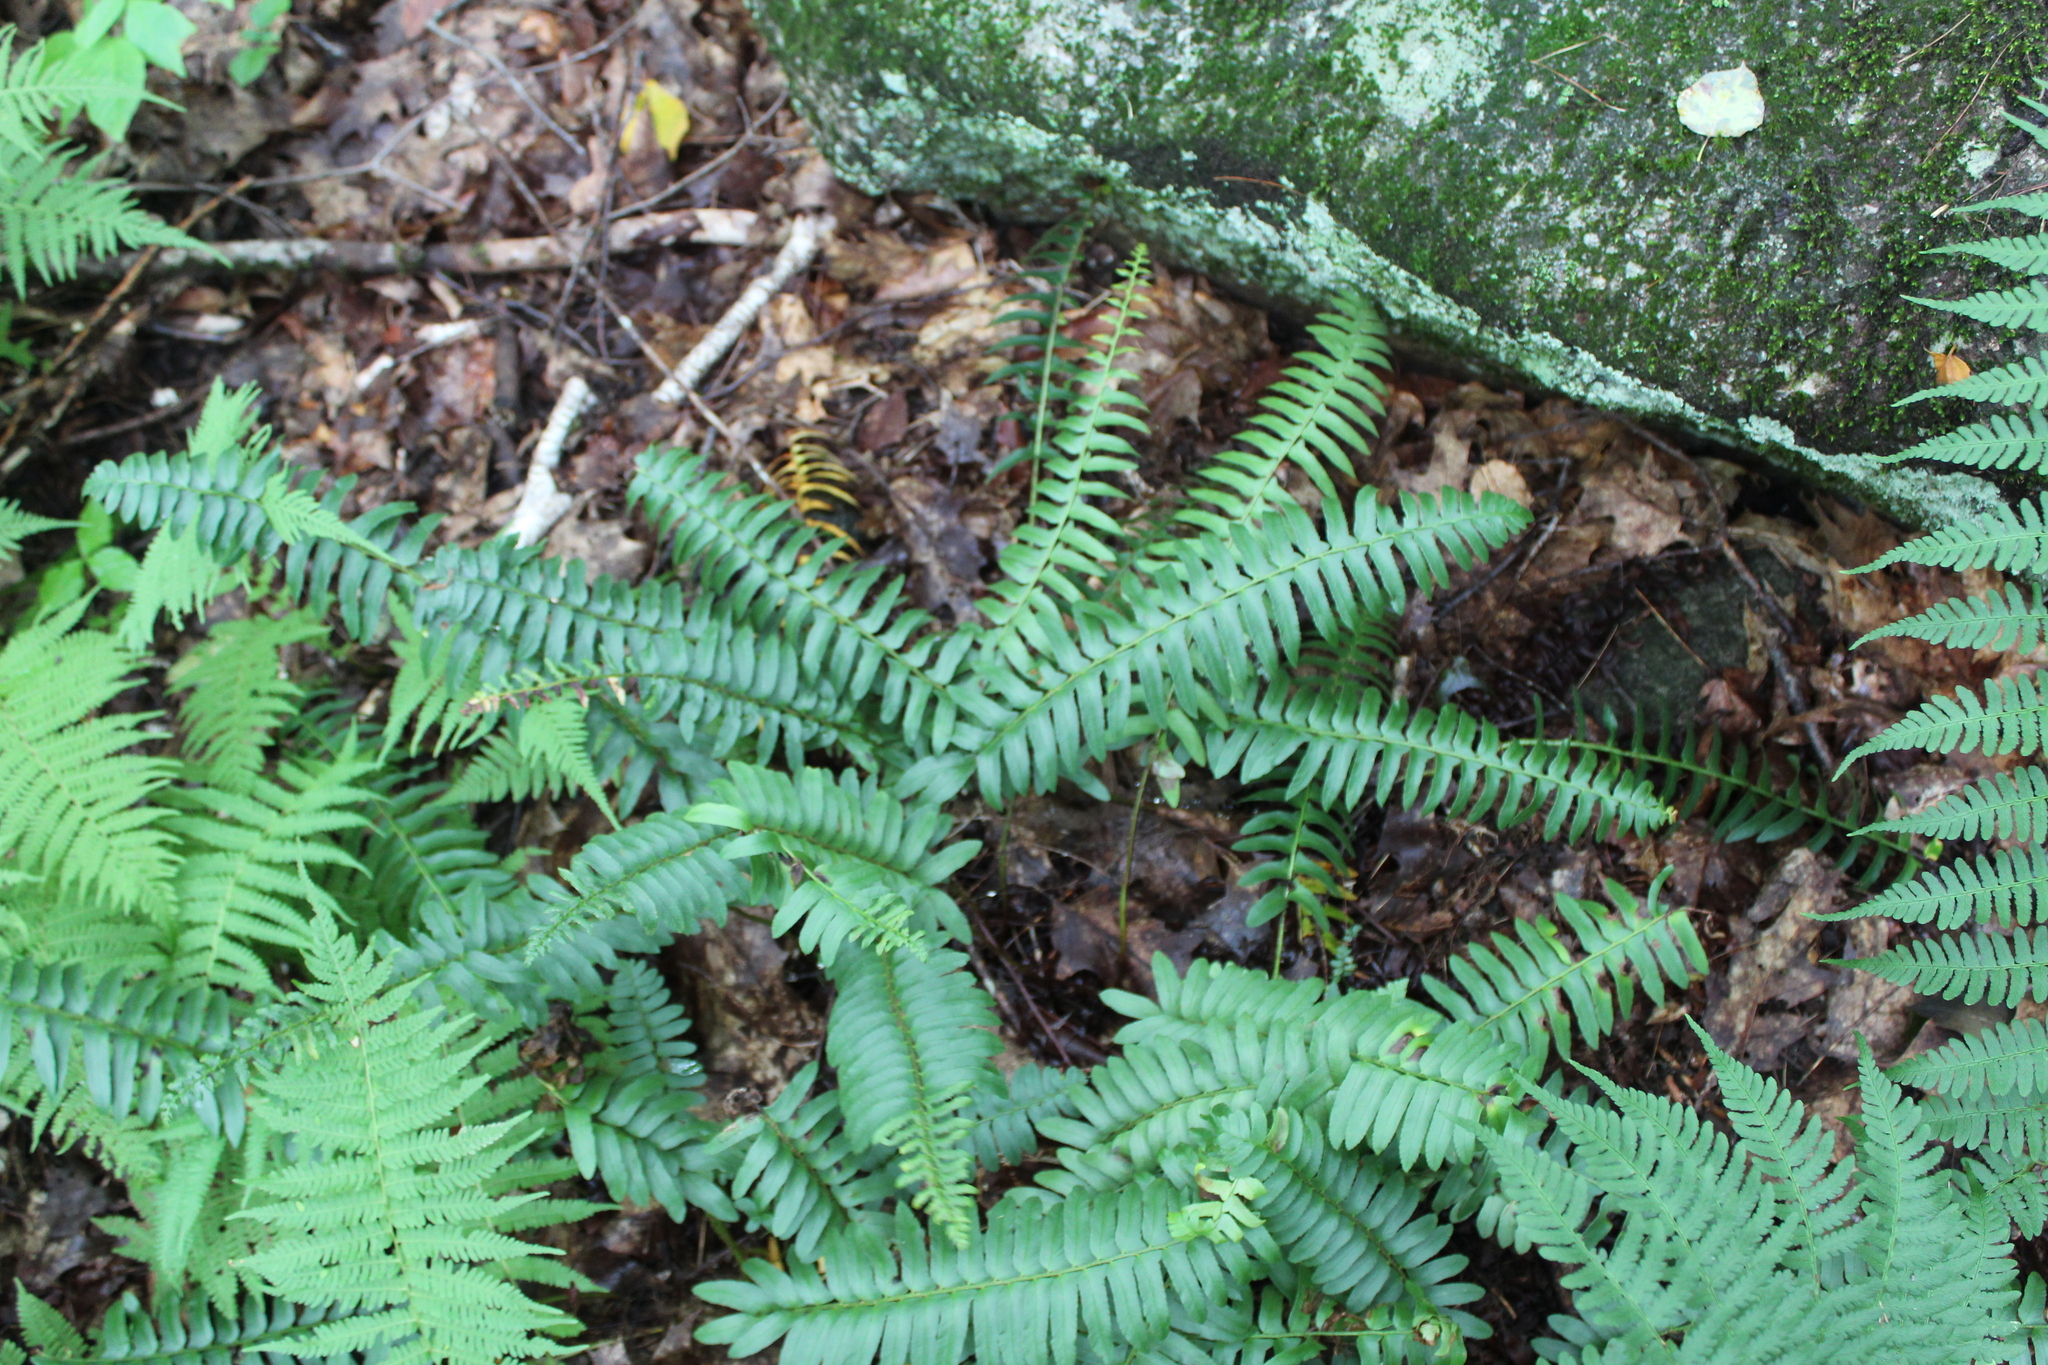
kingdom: Plantae
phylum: Tracheophyta
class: Polypodiopsida
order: Polypodiales
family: Dryopteridaceae
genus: Polystichum
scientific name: Polystichum acrostichoides
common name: Christmas fern
